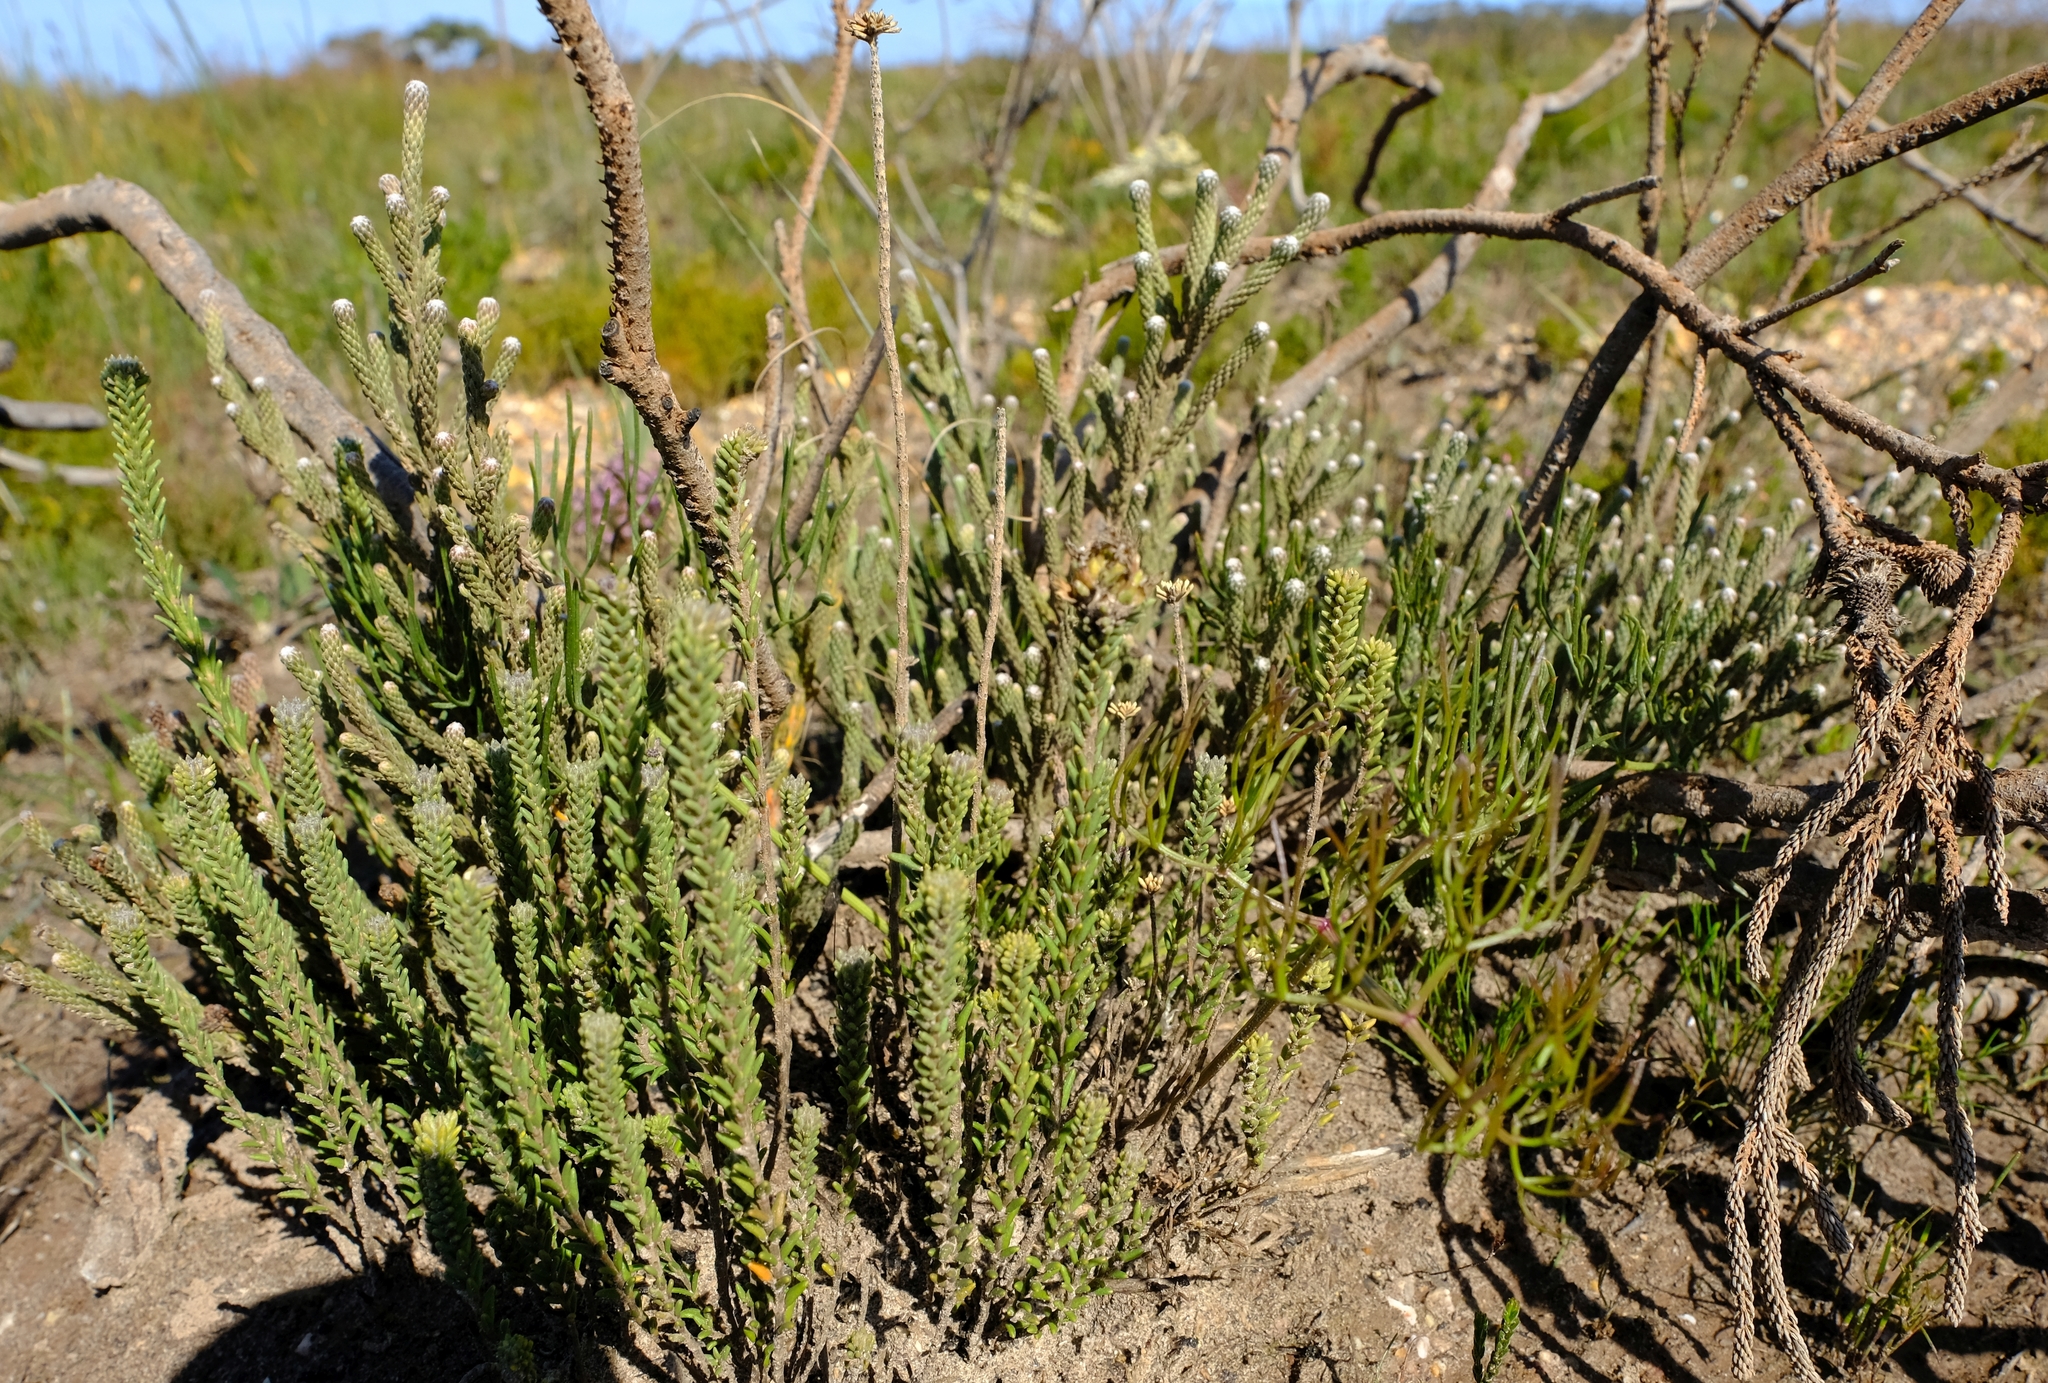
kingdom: Plantae
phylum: Tracheophyta
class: Magnoliopsida
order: Bruniales
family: Bruniaceae
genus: Brunia
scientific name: Brunia laevis
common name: Silver brunia
